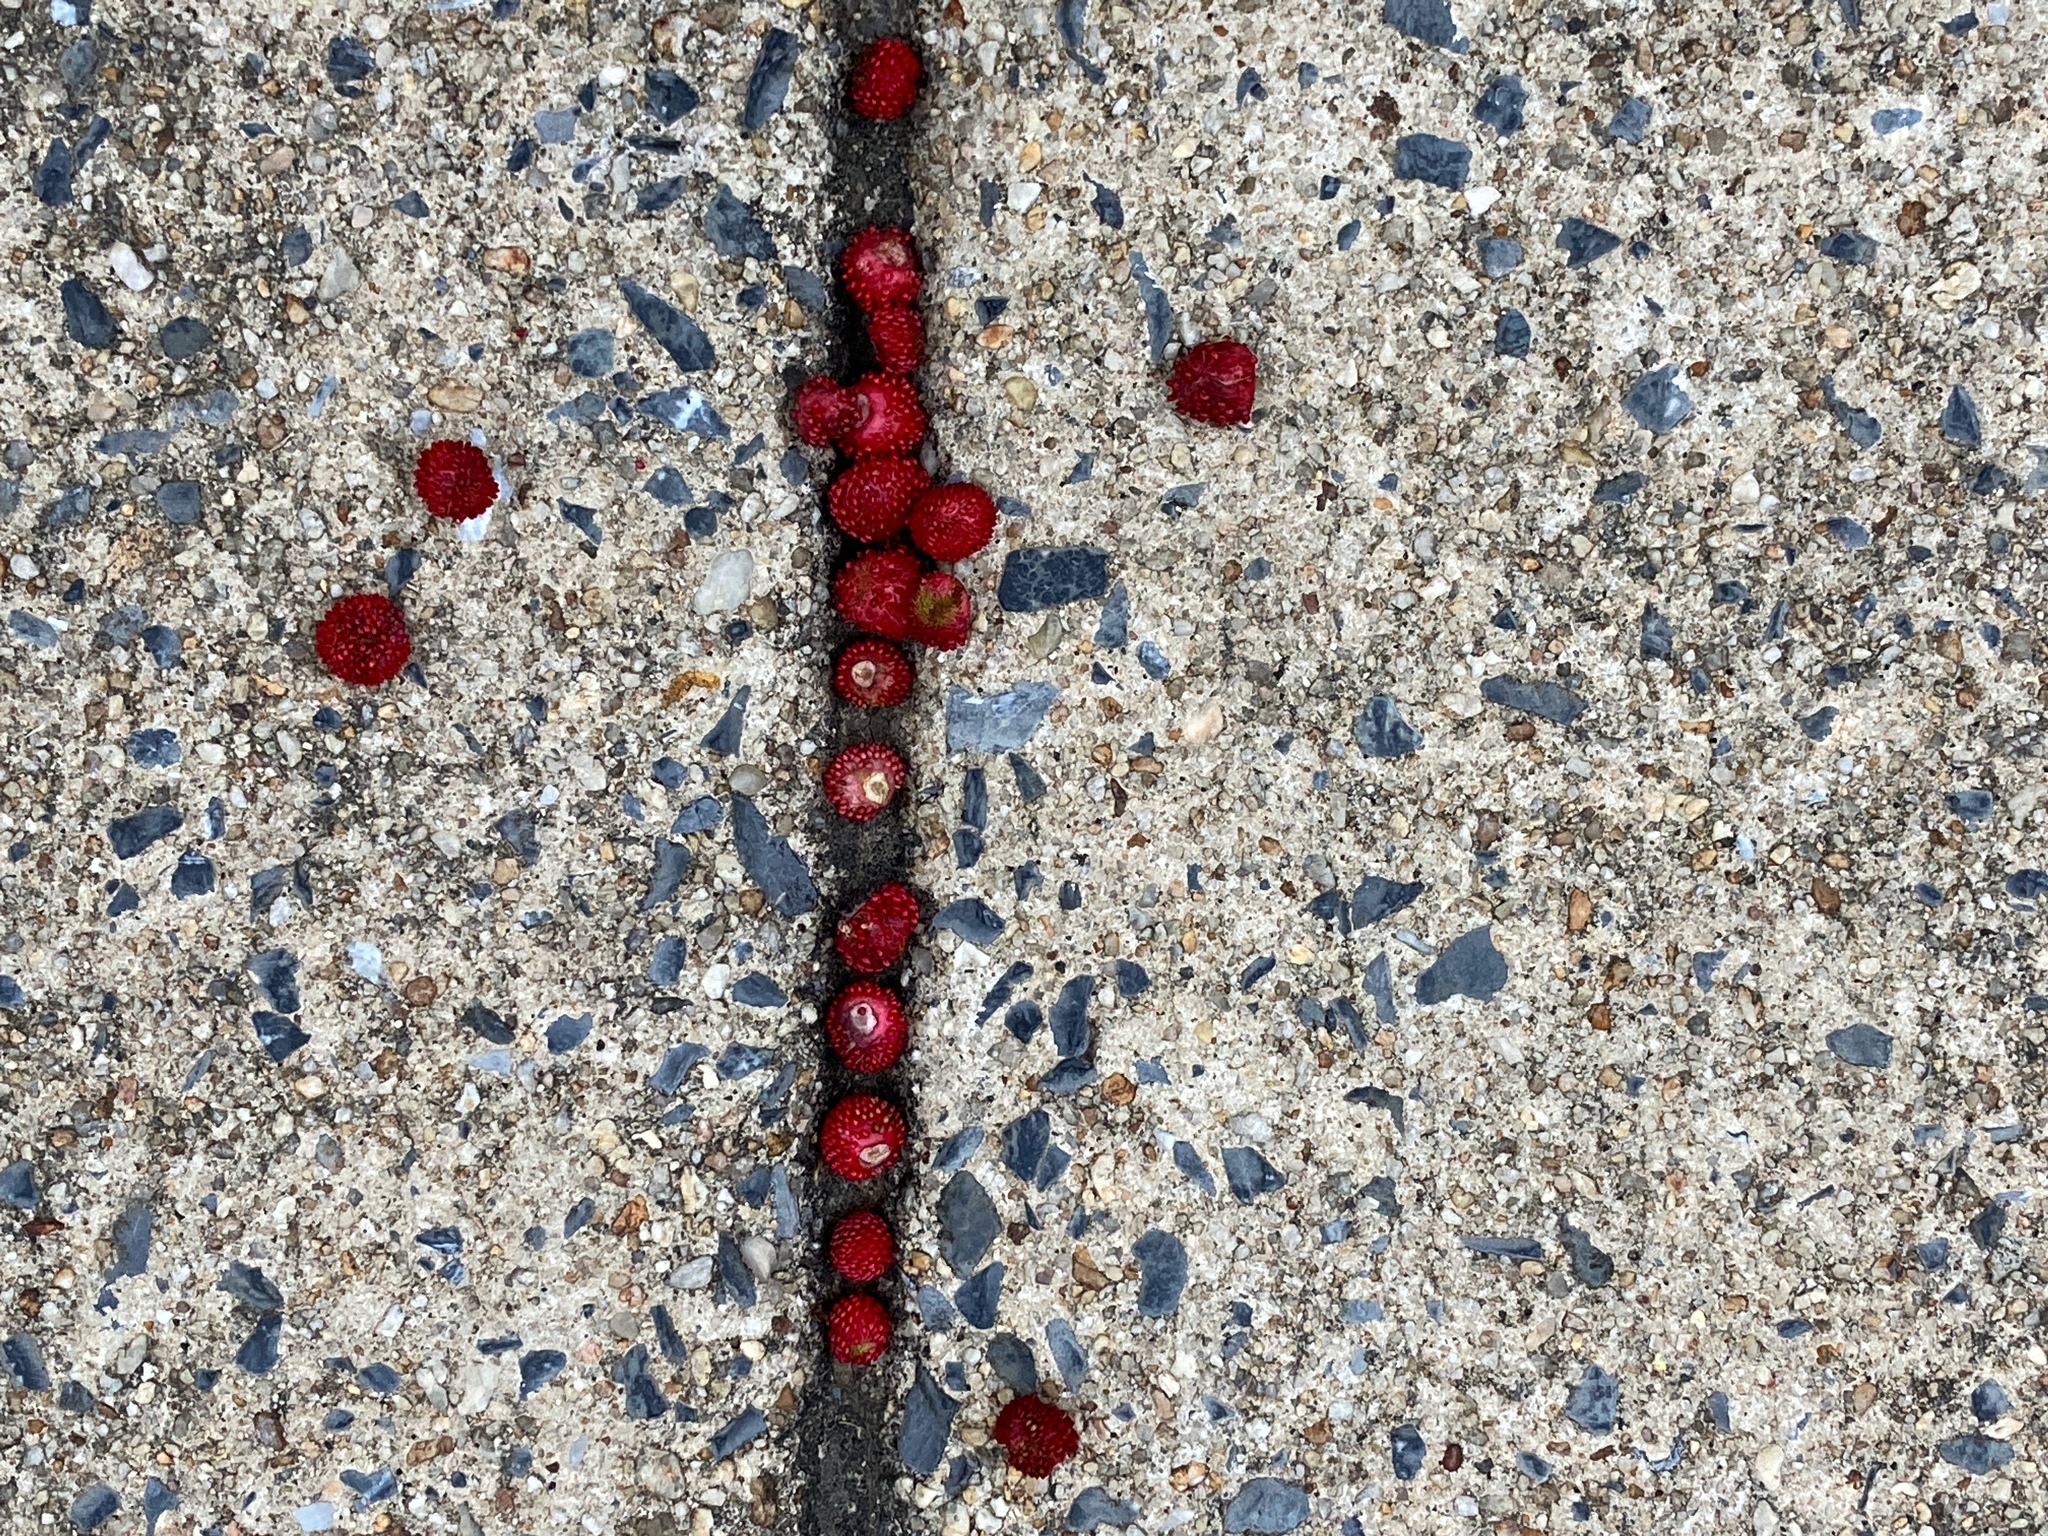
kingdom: Plantae
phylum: Tracheophyta
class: Magnoliopsida
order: Rosales
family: Rosaceae
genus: Potentilla
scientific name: Potentilla indica
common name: Yellow-flowered strawberry
